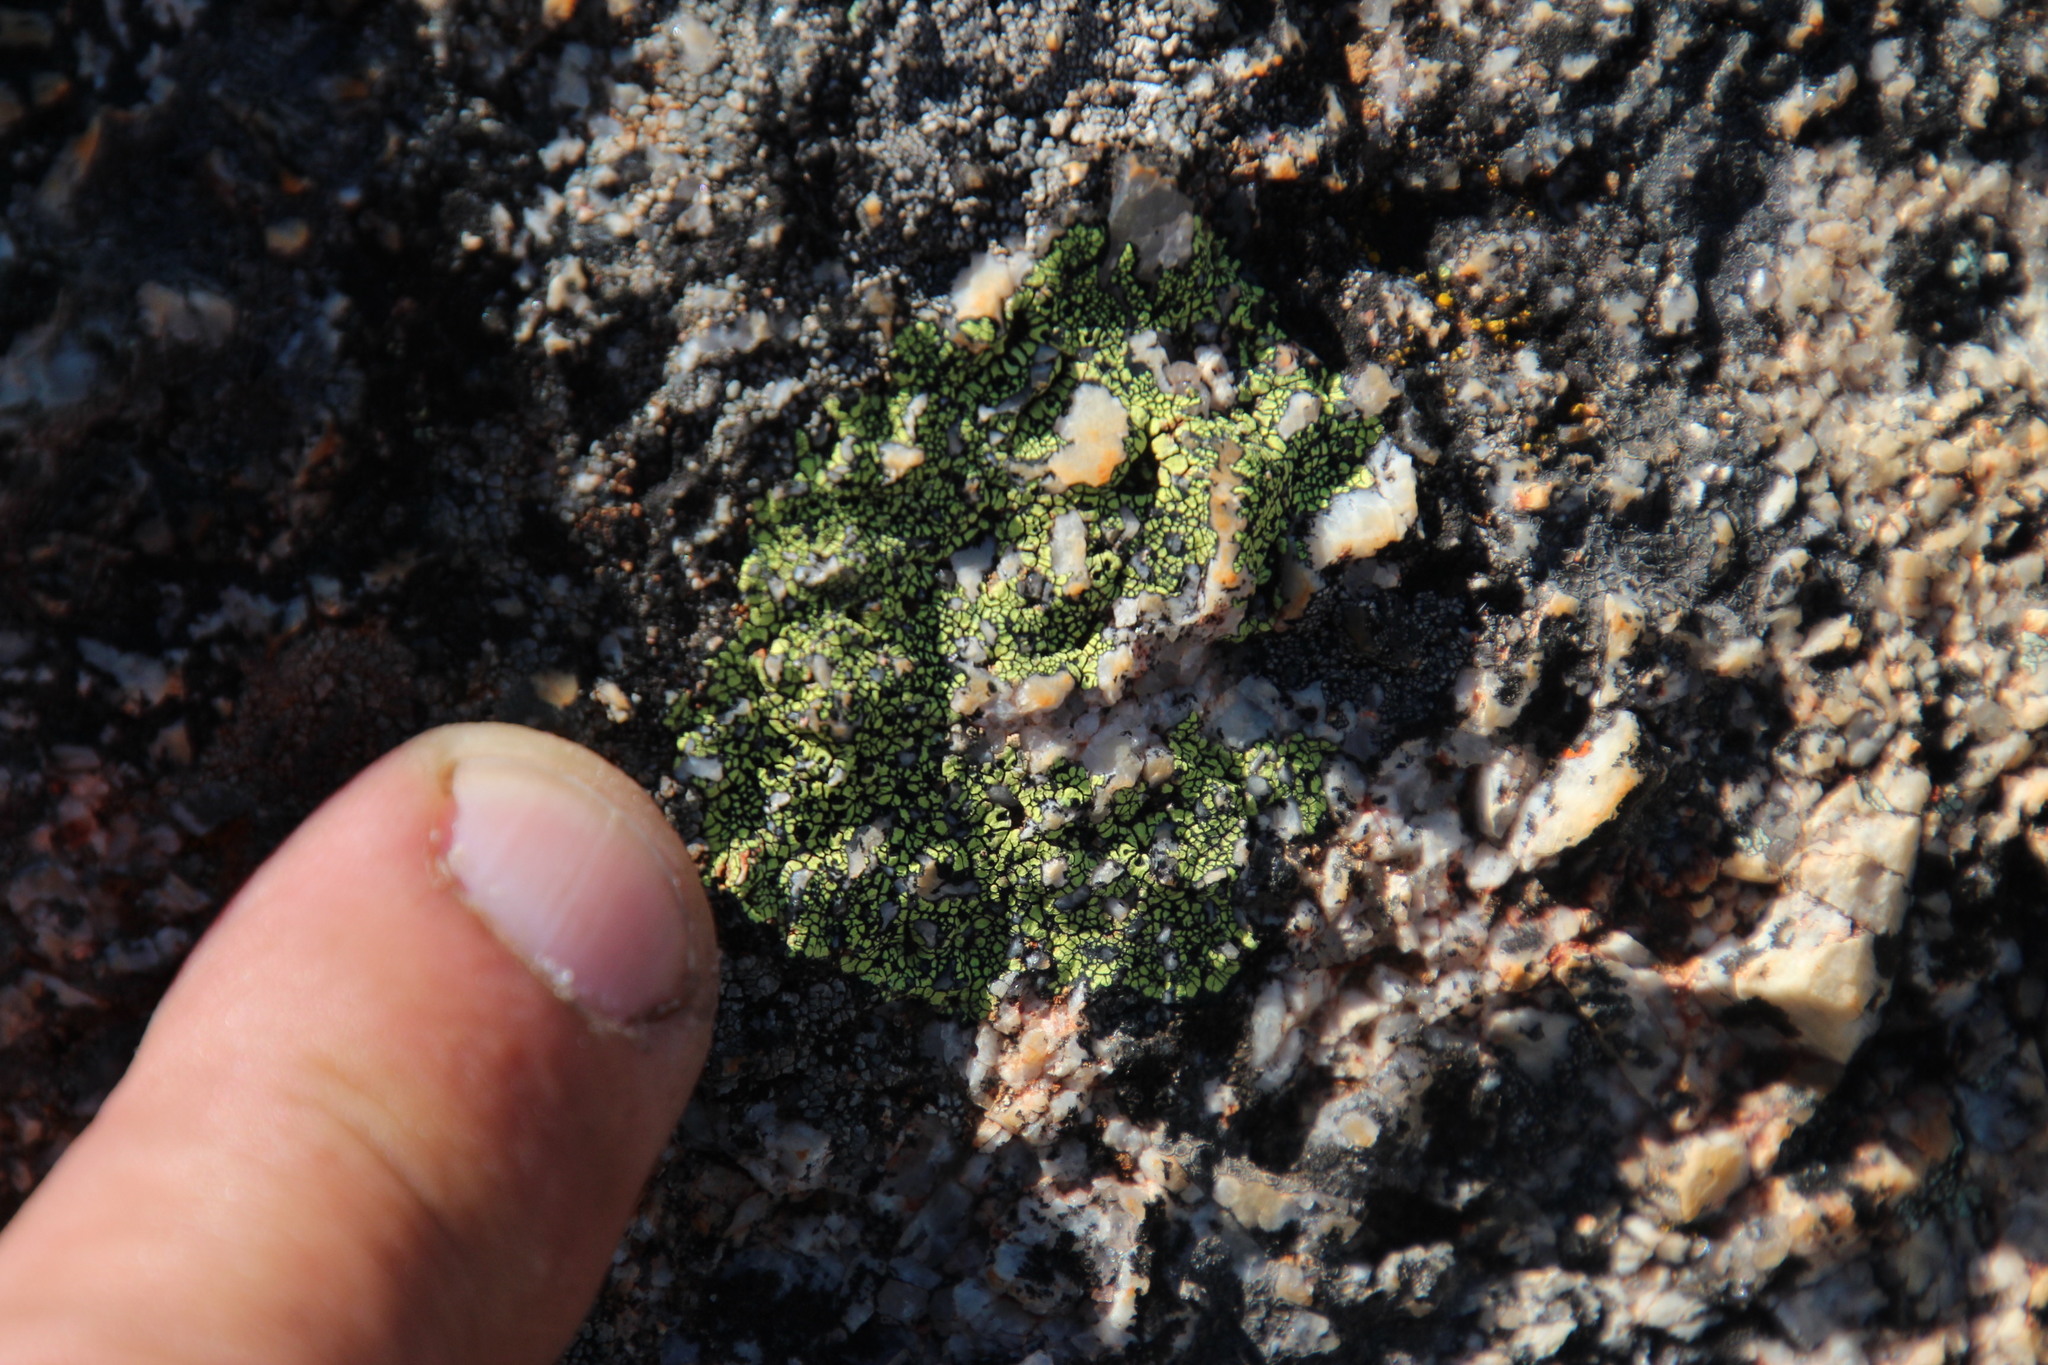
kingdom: Fungi
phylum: Ascomycota
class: Lecanoromycetes
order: Rhizocarpales
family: Rhizocarpaceae
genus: Rhizocarpon
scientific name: Rhizocarpon lecanorinum
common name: Crescent map lichen
